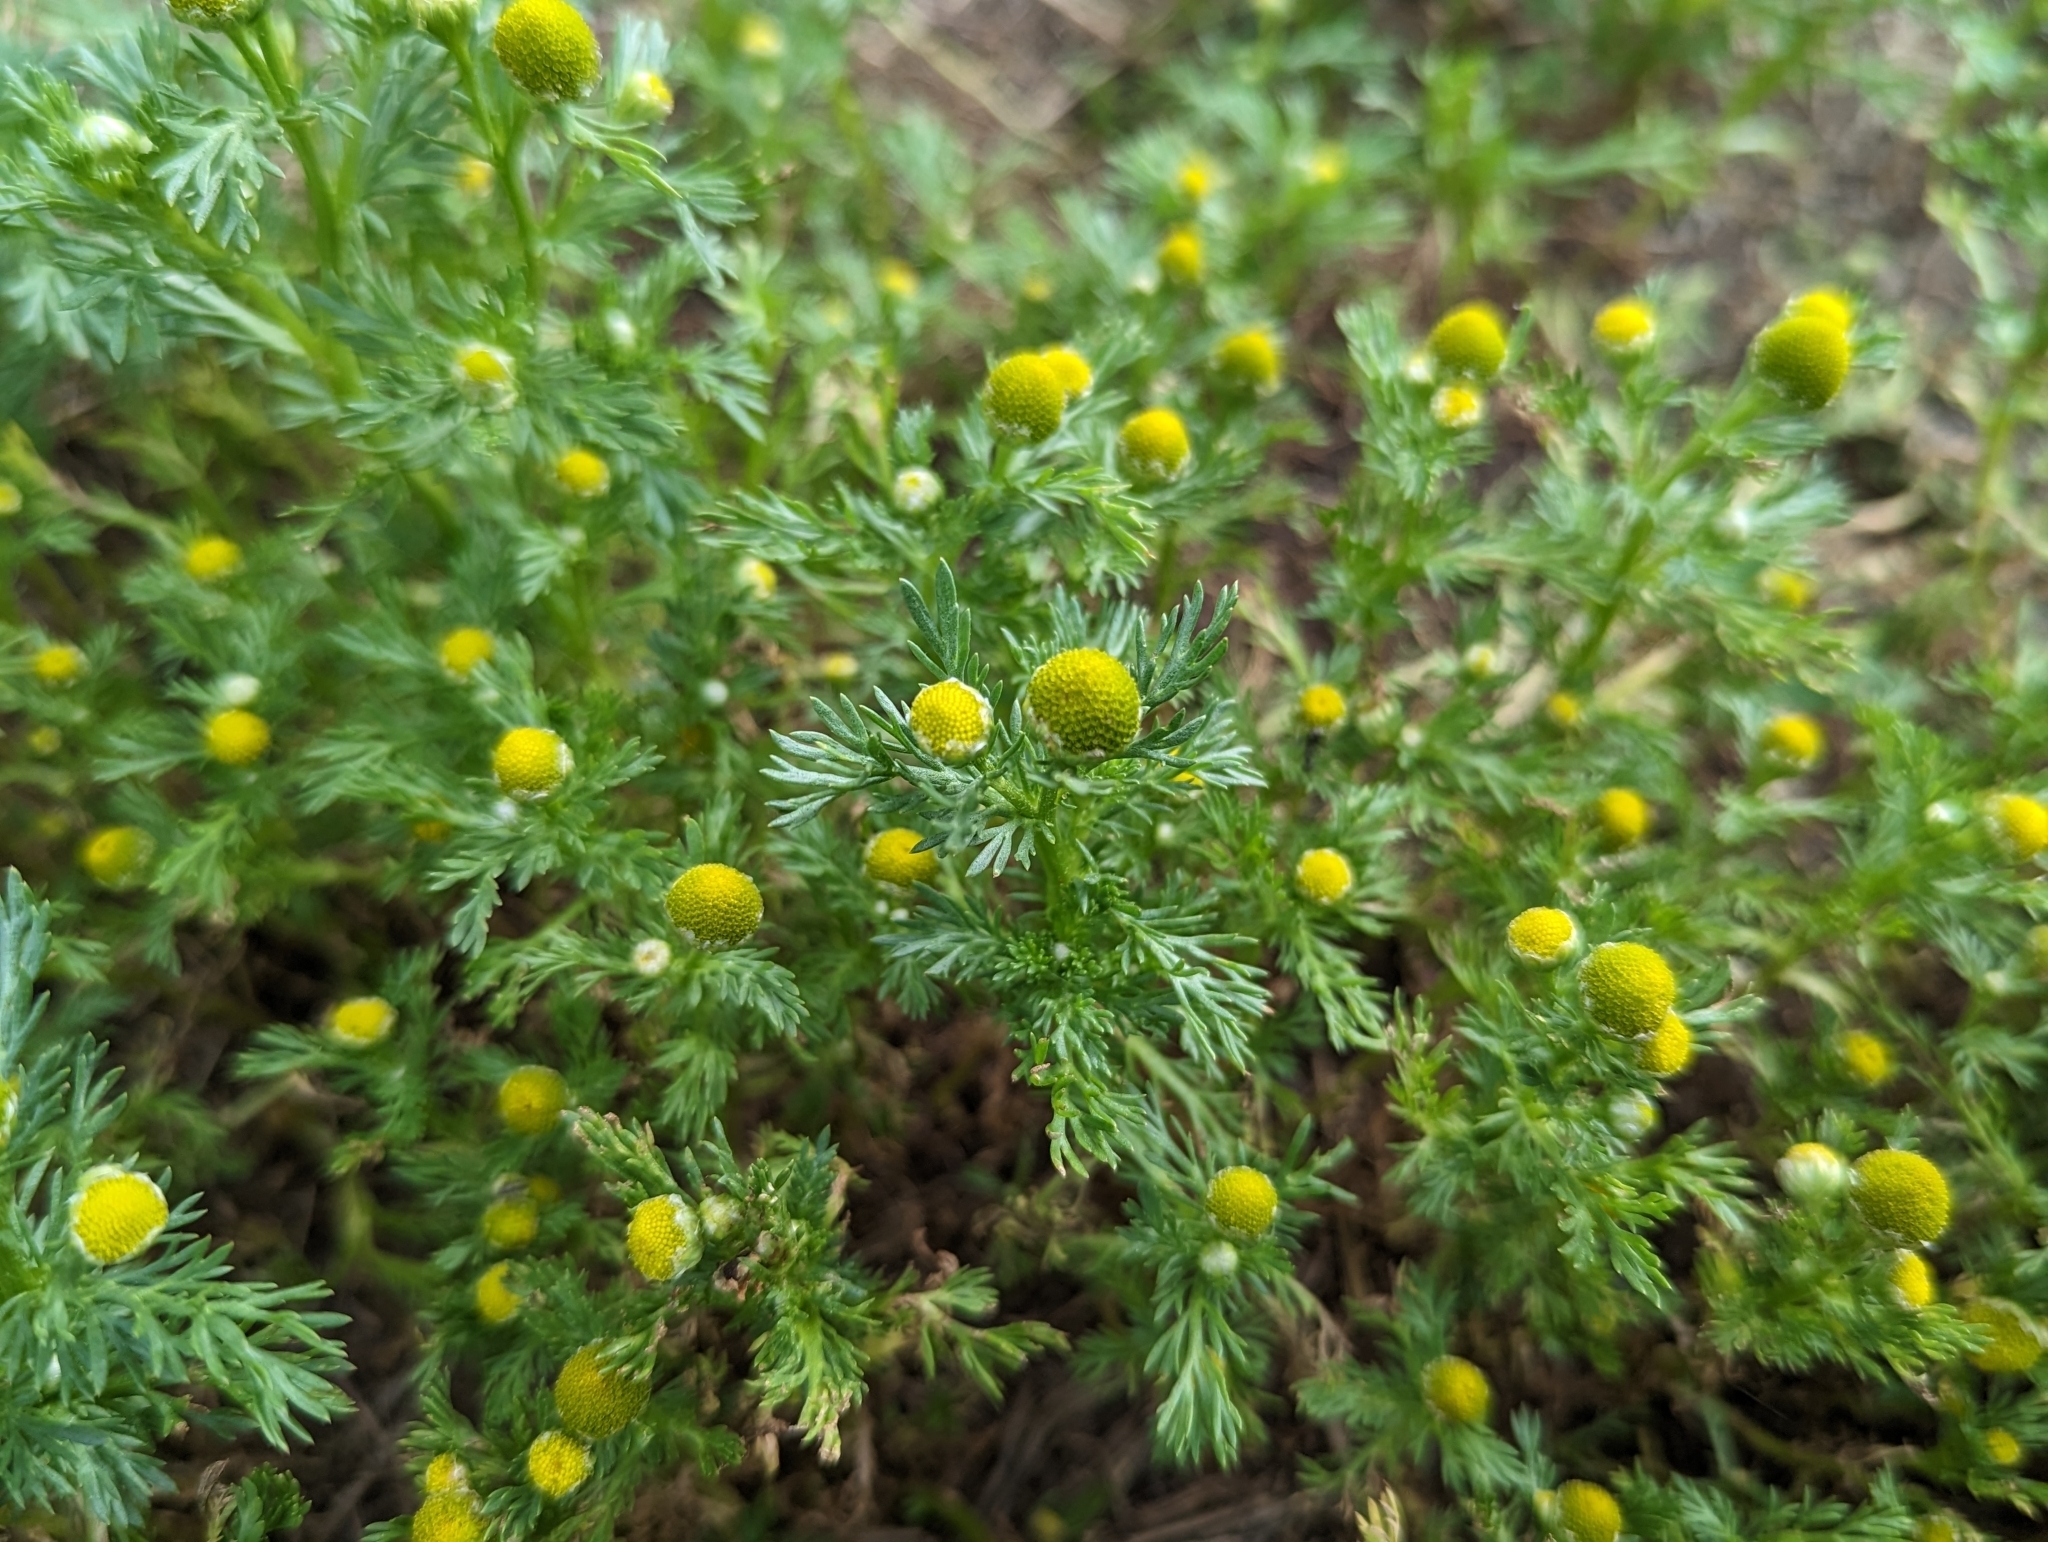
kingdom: Plantae
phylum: Tracheophyta
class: Magnoliopsida
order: Asterales
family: Asteraceae
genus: Matricaria
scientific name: Matricaria discoidea
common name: Disc mayweed
